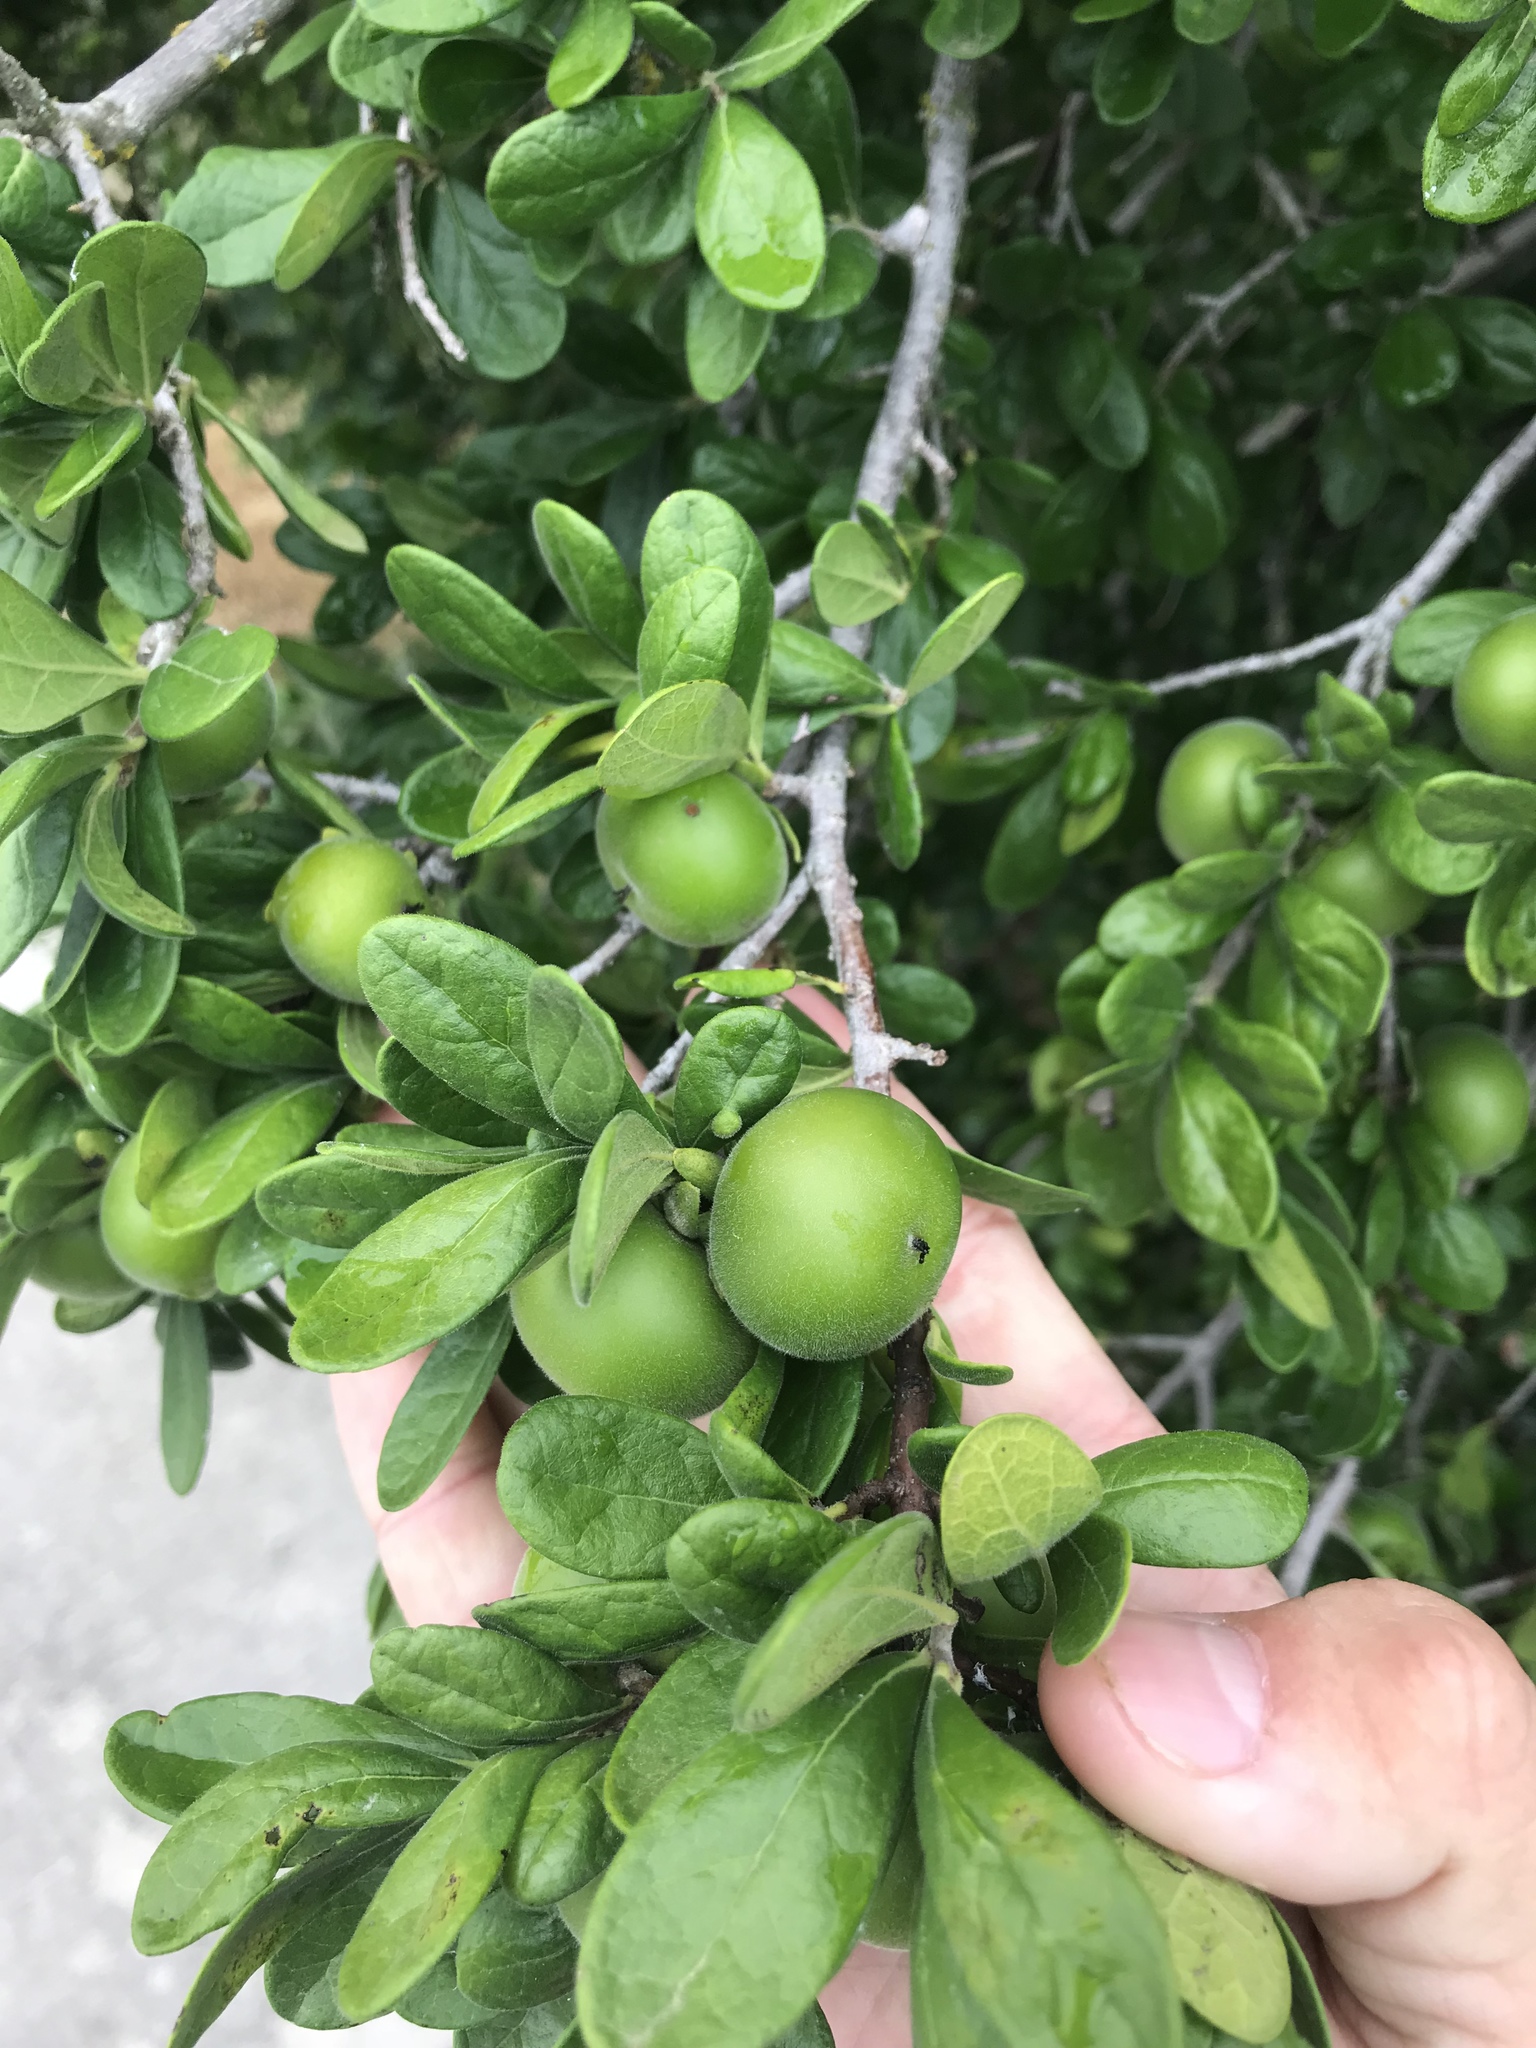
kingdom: Plantae
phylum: Tracheophyta
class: Magnoliopsida
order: Ericales
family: Ebenaceae
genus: Diospyros
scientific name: Diospyros texana
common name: Texas persimmon
